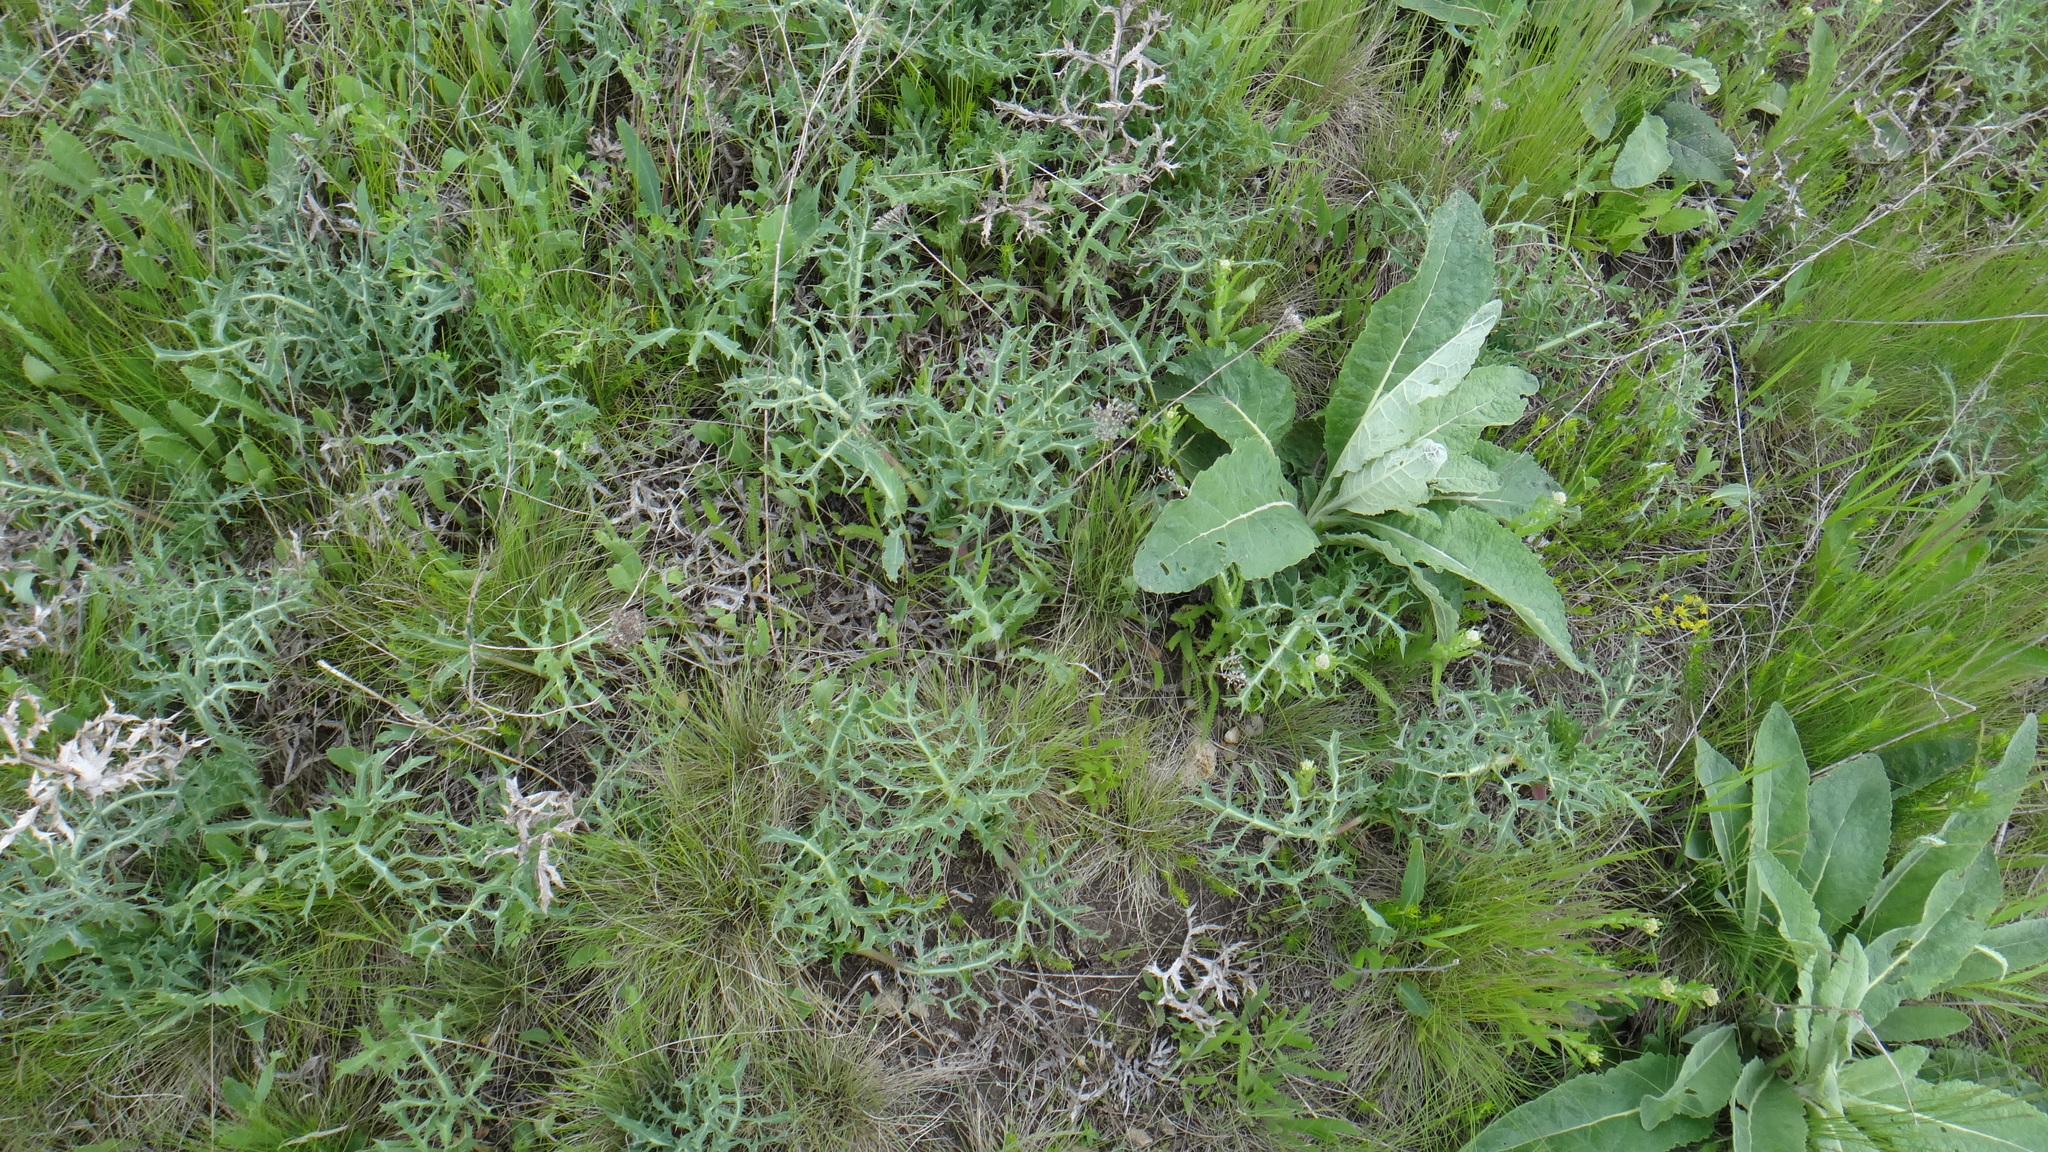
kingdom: Plantae
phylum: Tracheophyta
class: Magnoliopsida
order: Apiales
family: Apiaceae
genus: Eryngium
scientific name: Eryngium campestre
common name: Field eryngo
